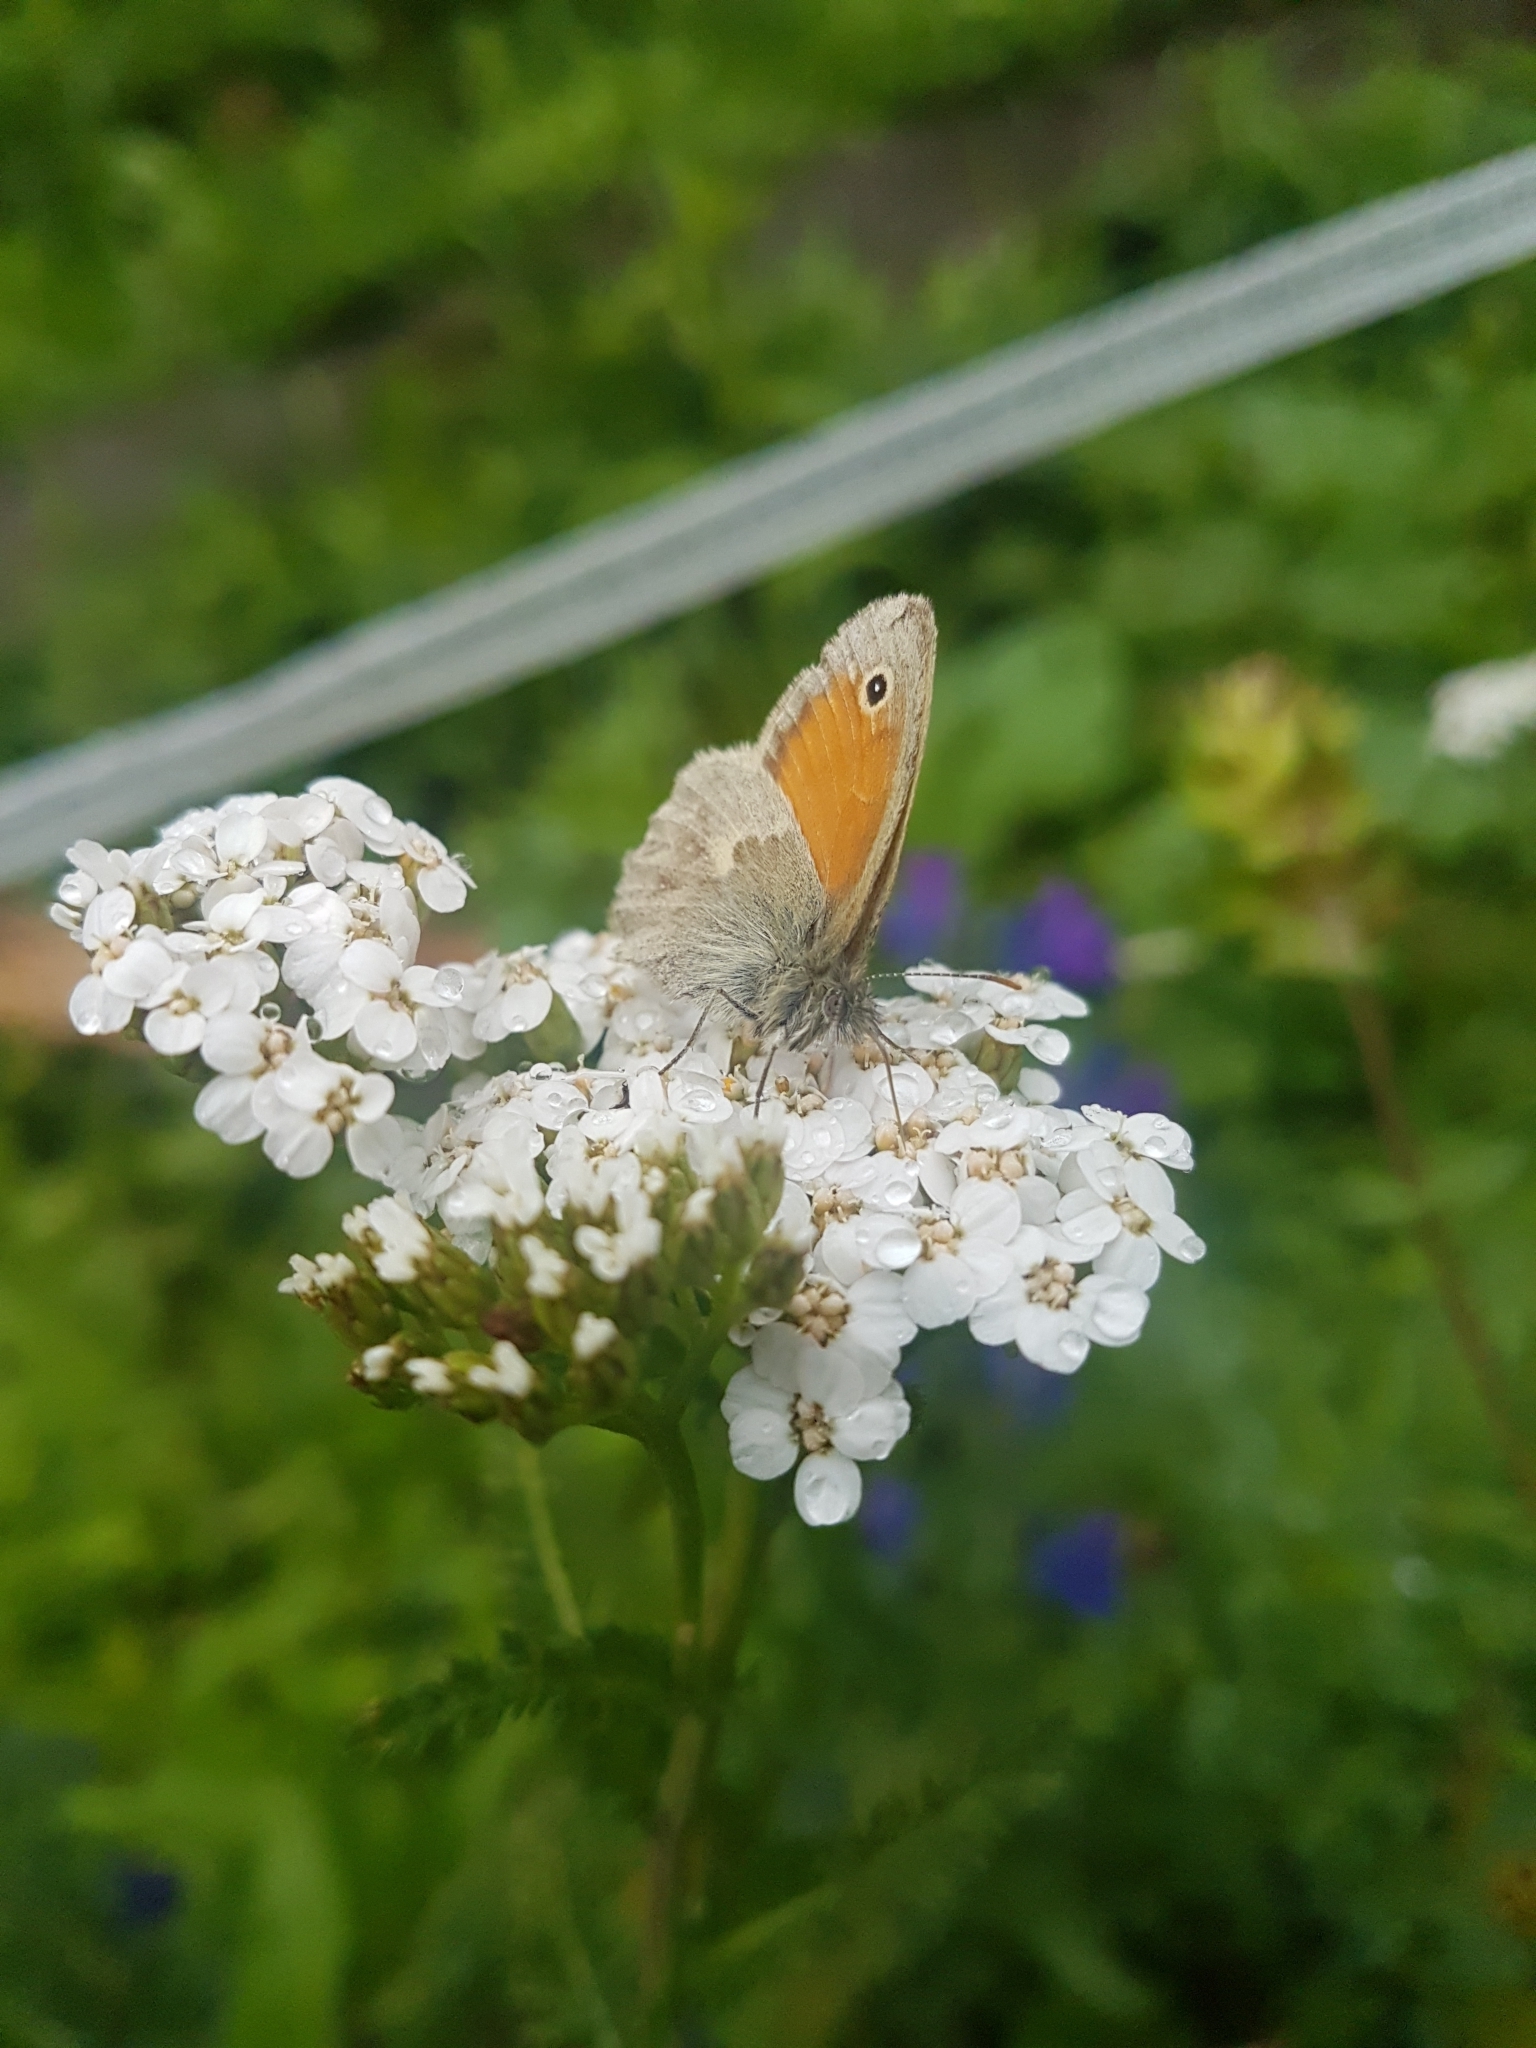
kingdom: Animalia
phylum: Arthropoda
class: Insecta
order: Lepidoptera
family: Nymphalidae
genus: Coenonympha
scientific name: Coenonympha pamphilus
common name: Small heath
